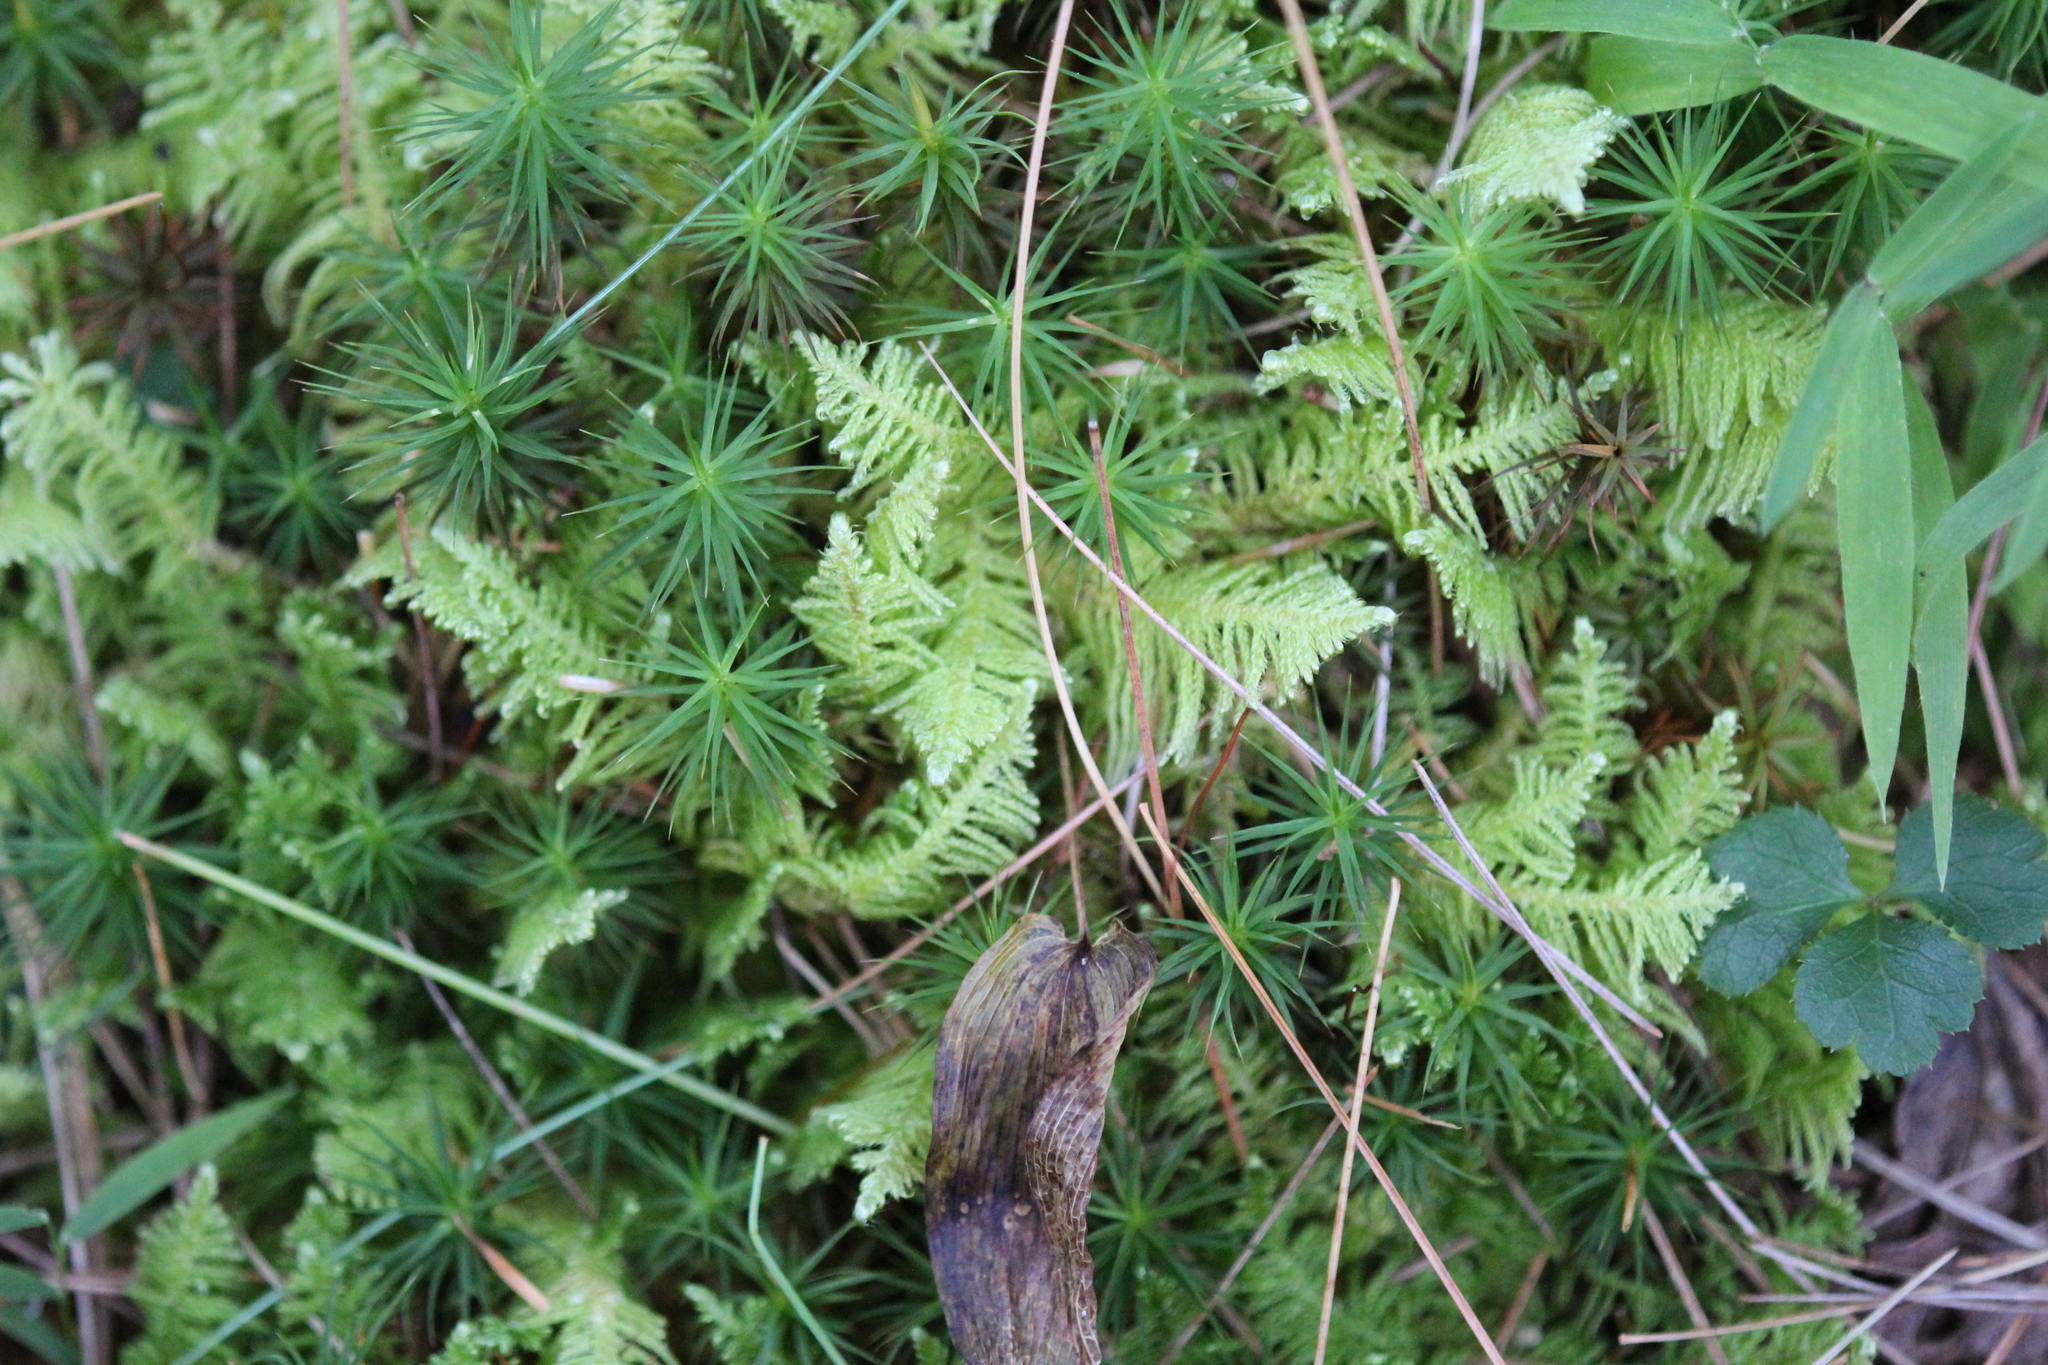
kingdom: Plantae
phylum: Bryophyta
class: Bryopsida
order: Hypnales
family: Pylaisiaceae
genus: Ptilium
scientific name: Ptilium crista-castrensis
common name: Knight's plume moss
